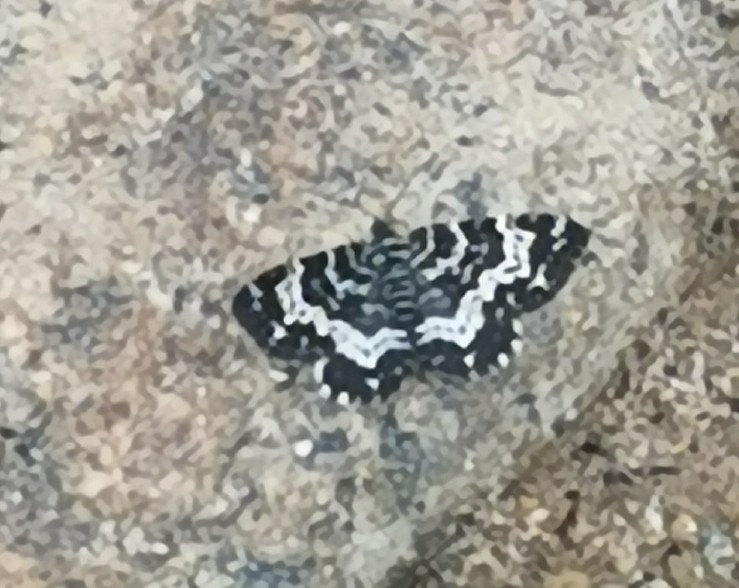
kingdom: Animalia
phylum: Arthropoda
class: Insecta
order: Lepidoptera
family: Geometridae
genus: Rheumaptera
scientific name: Rheumaptera subhastata
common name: White-banded black moth
